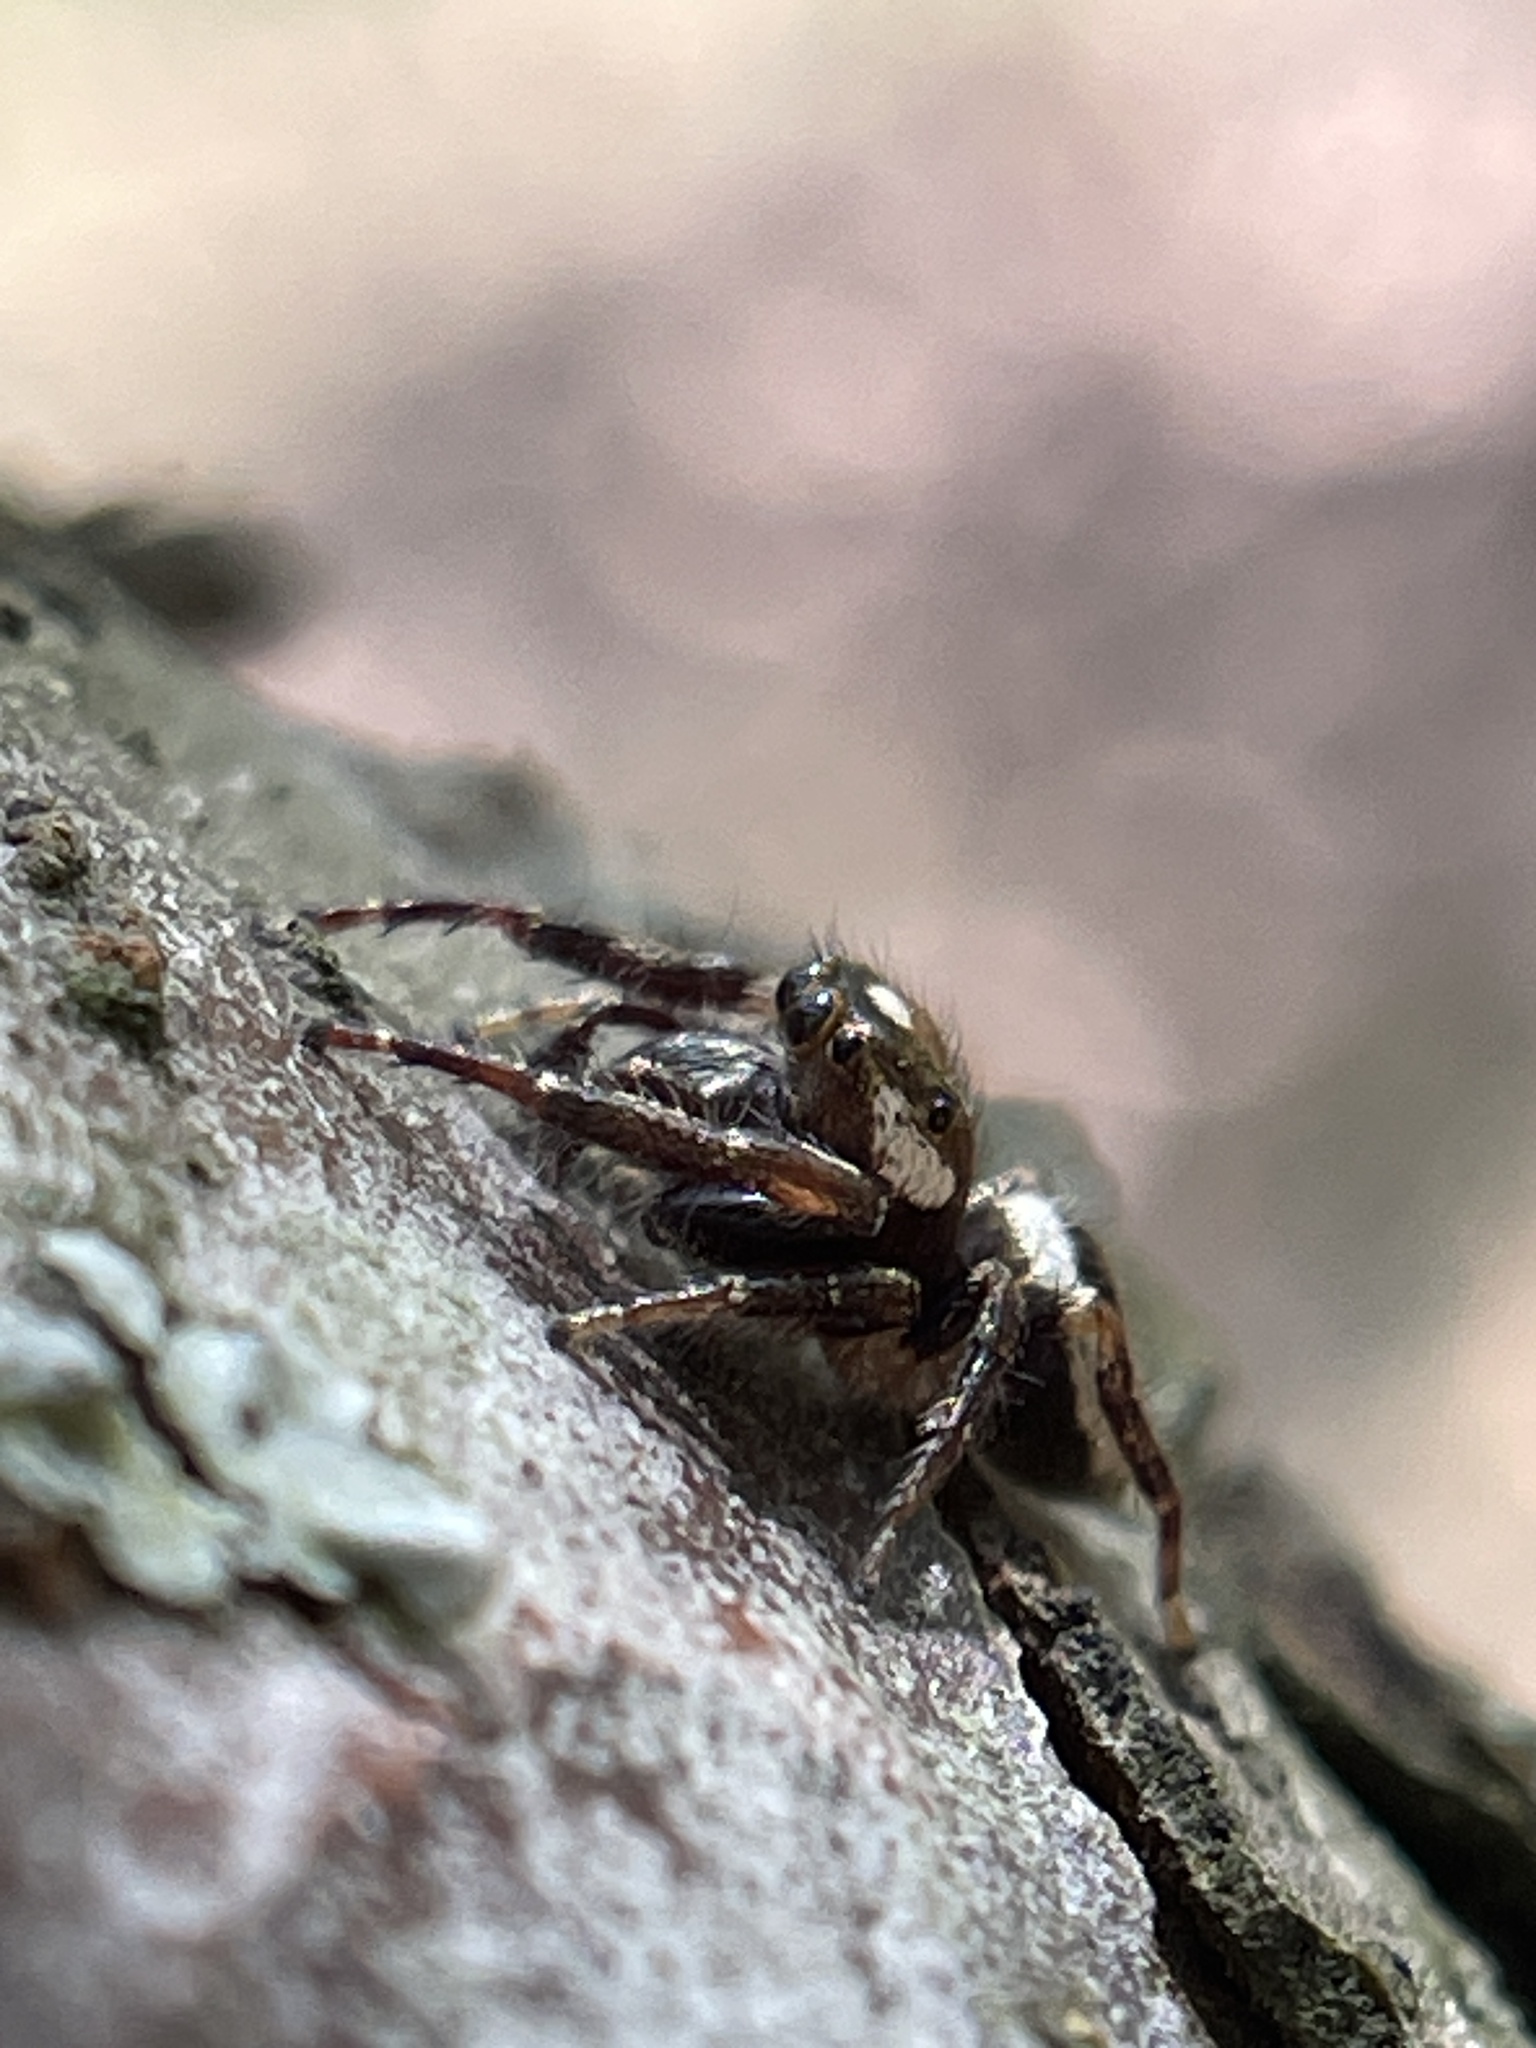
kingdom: Animalia
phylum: Arthropoda
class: Arachnida
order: Araneae
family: Salticidae
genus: Eris
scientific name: Eris militaris
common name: Bronze jumper
